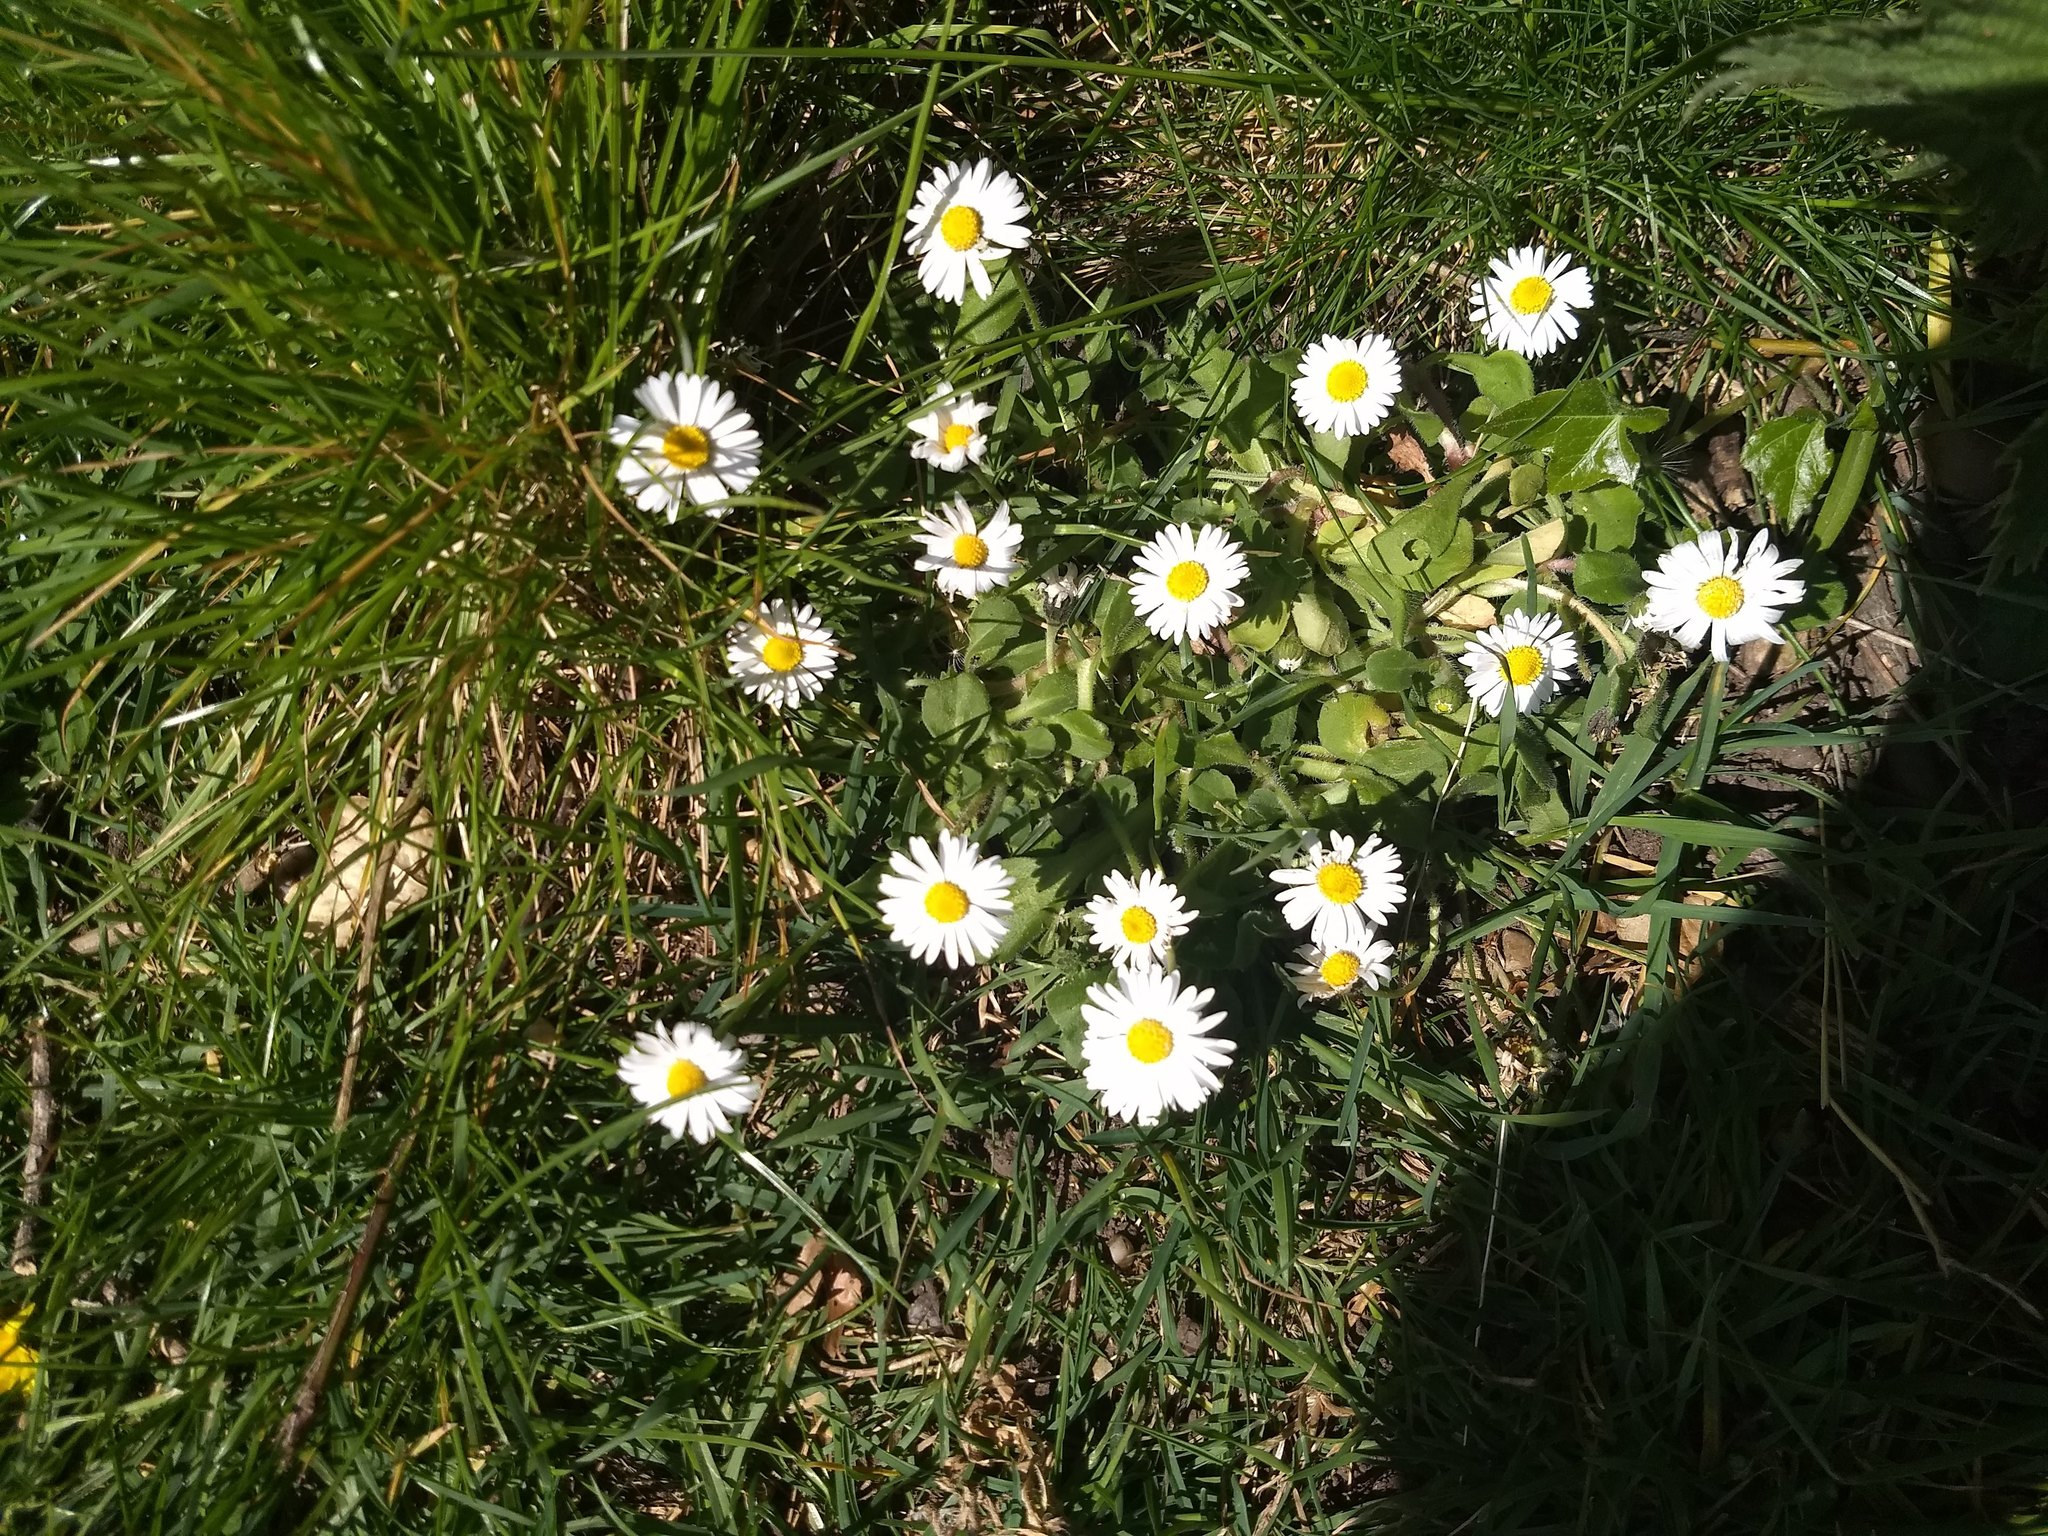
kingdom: Plantae
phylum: Tracheophyta
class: Magnoliopsida
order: Asterales
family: Asteraceae
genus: Bellis
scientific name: Bellis perennis
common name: Lawndaisy
